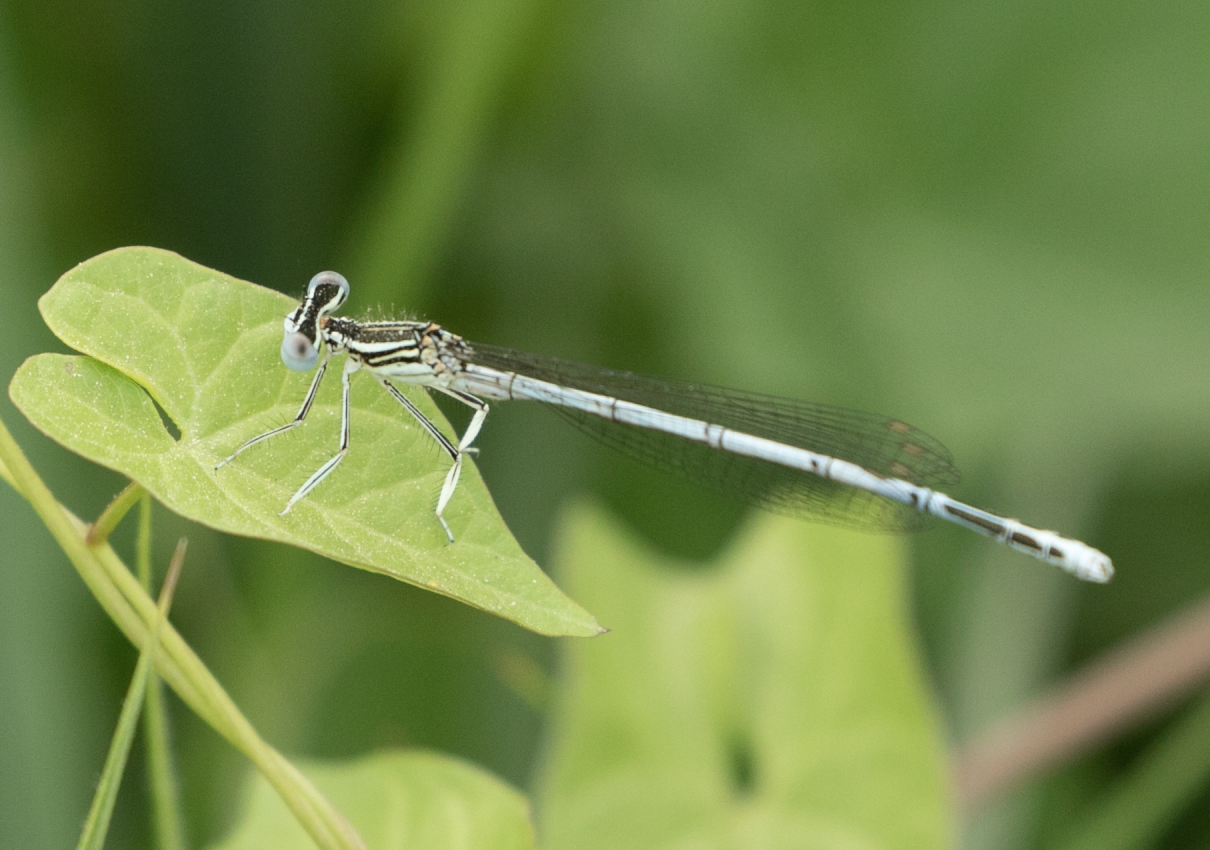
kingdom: Animalia
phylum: Arthropoda
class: Insecta
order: Odonata
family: Platycnemididae
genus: Platycnemis
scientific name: Platycnemis pennipes
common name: White-legged damselfly
